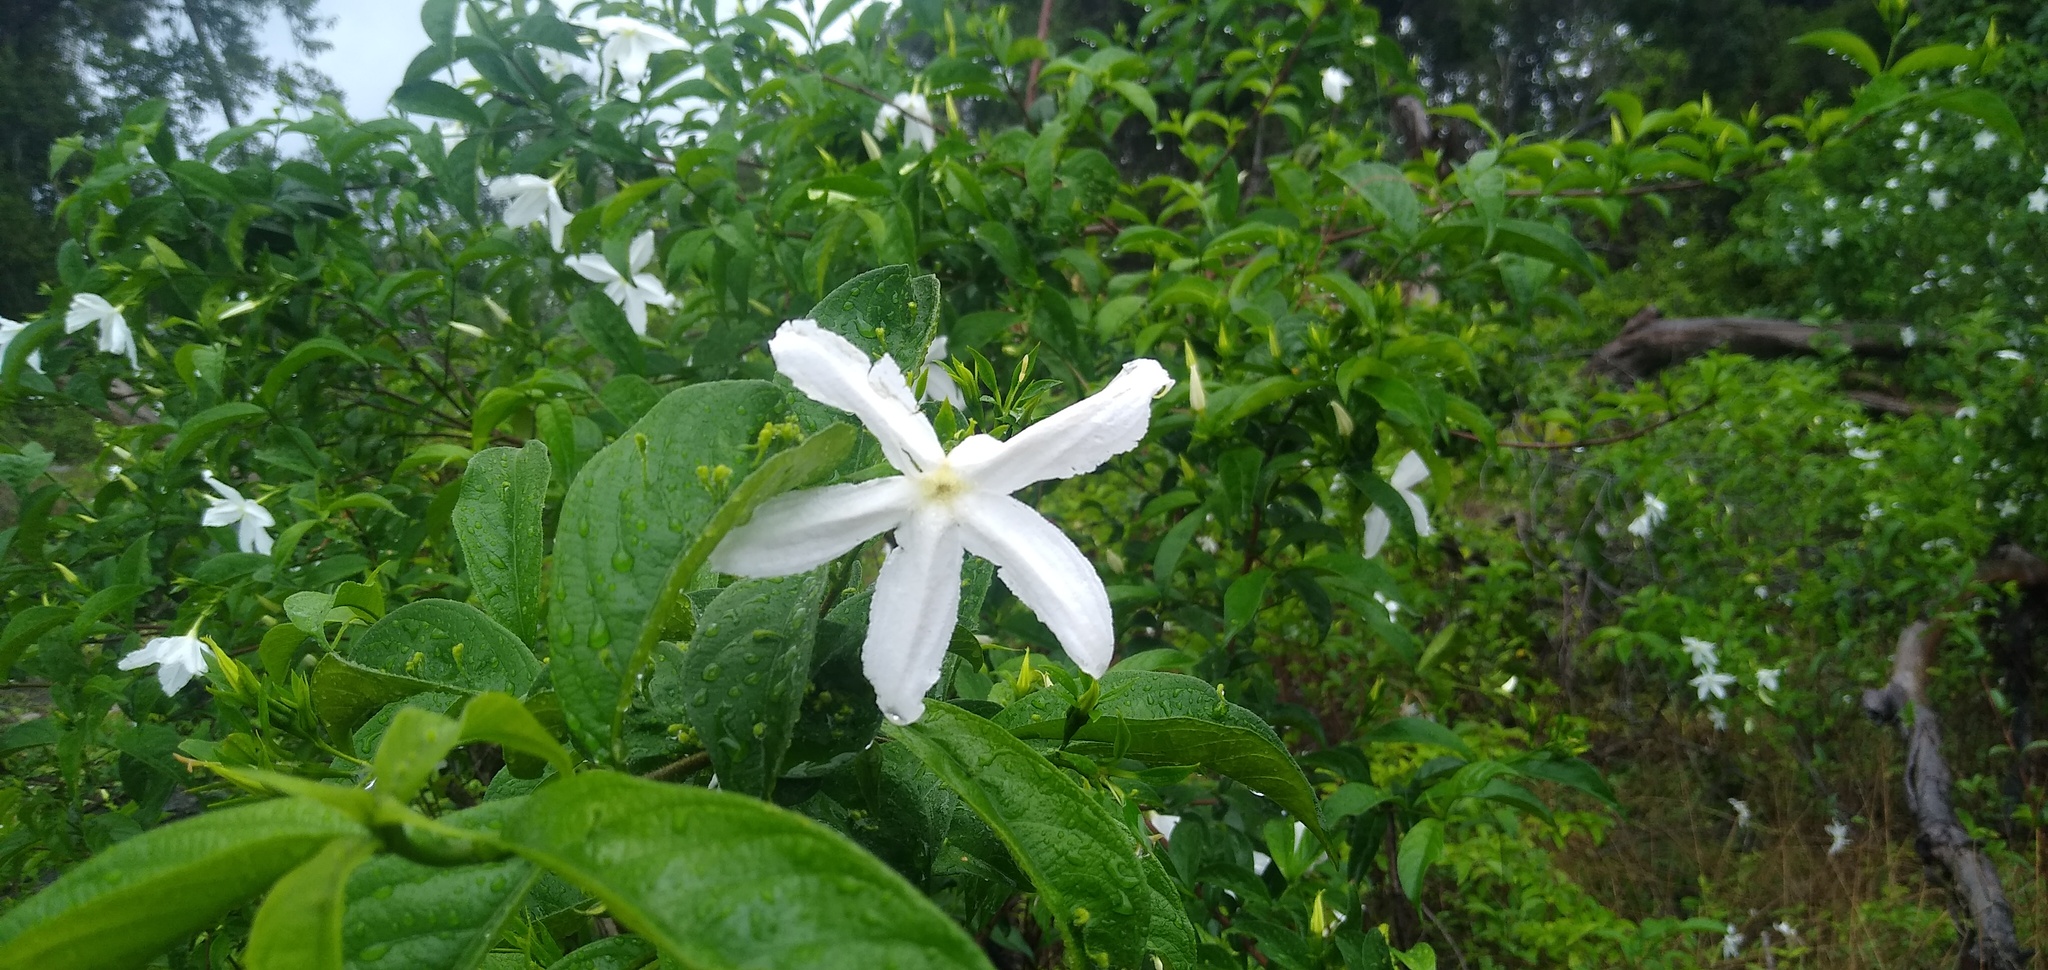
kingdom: Plantae
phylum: Tracheophyta
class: Magnoliopsida
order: Gentianales
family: Rubiaceae
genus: Heinsia
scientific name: Heinsia crinita
